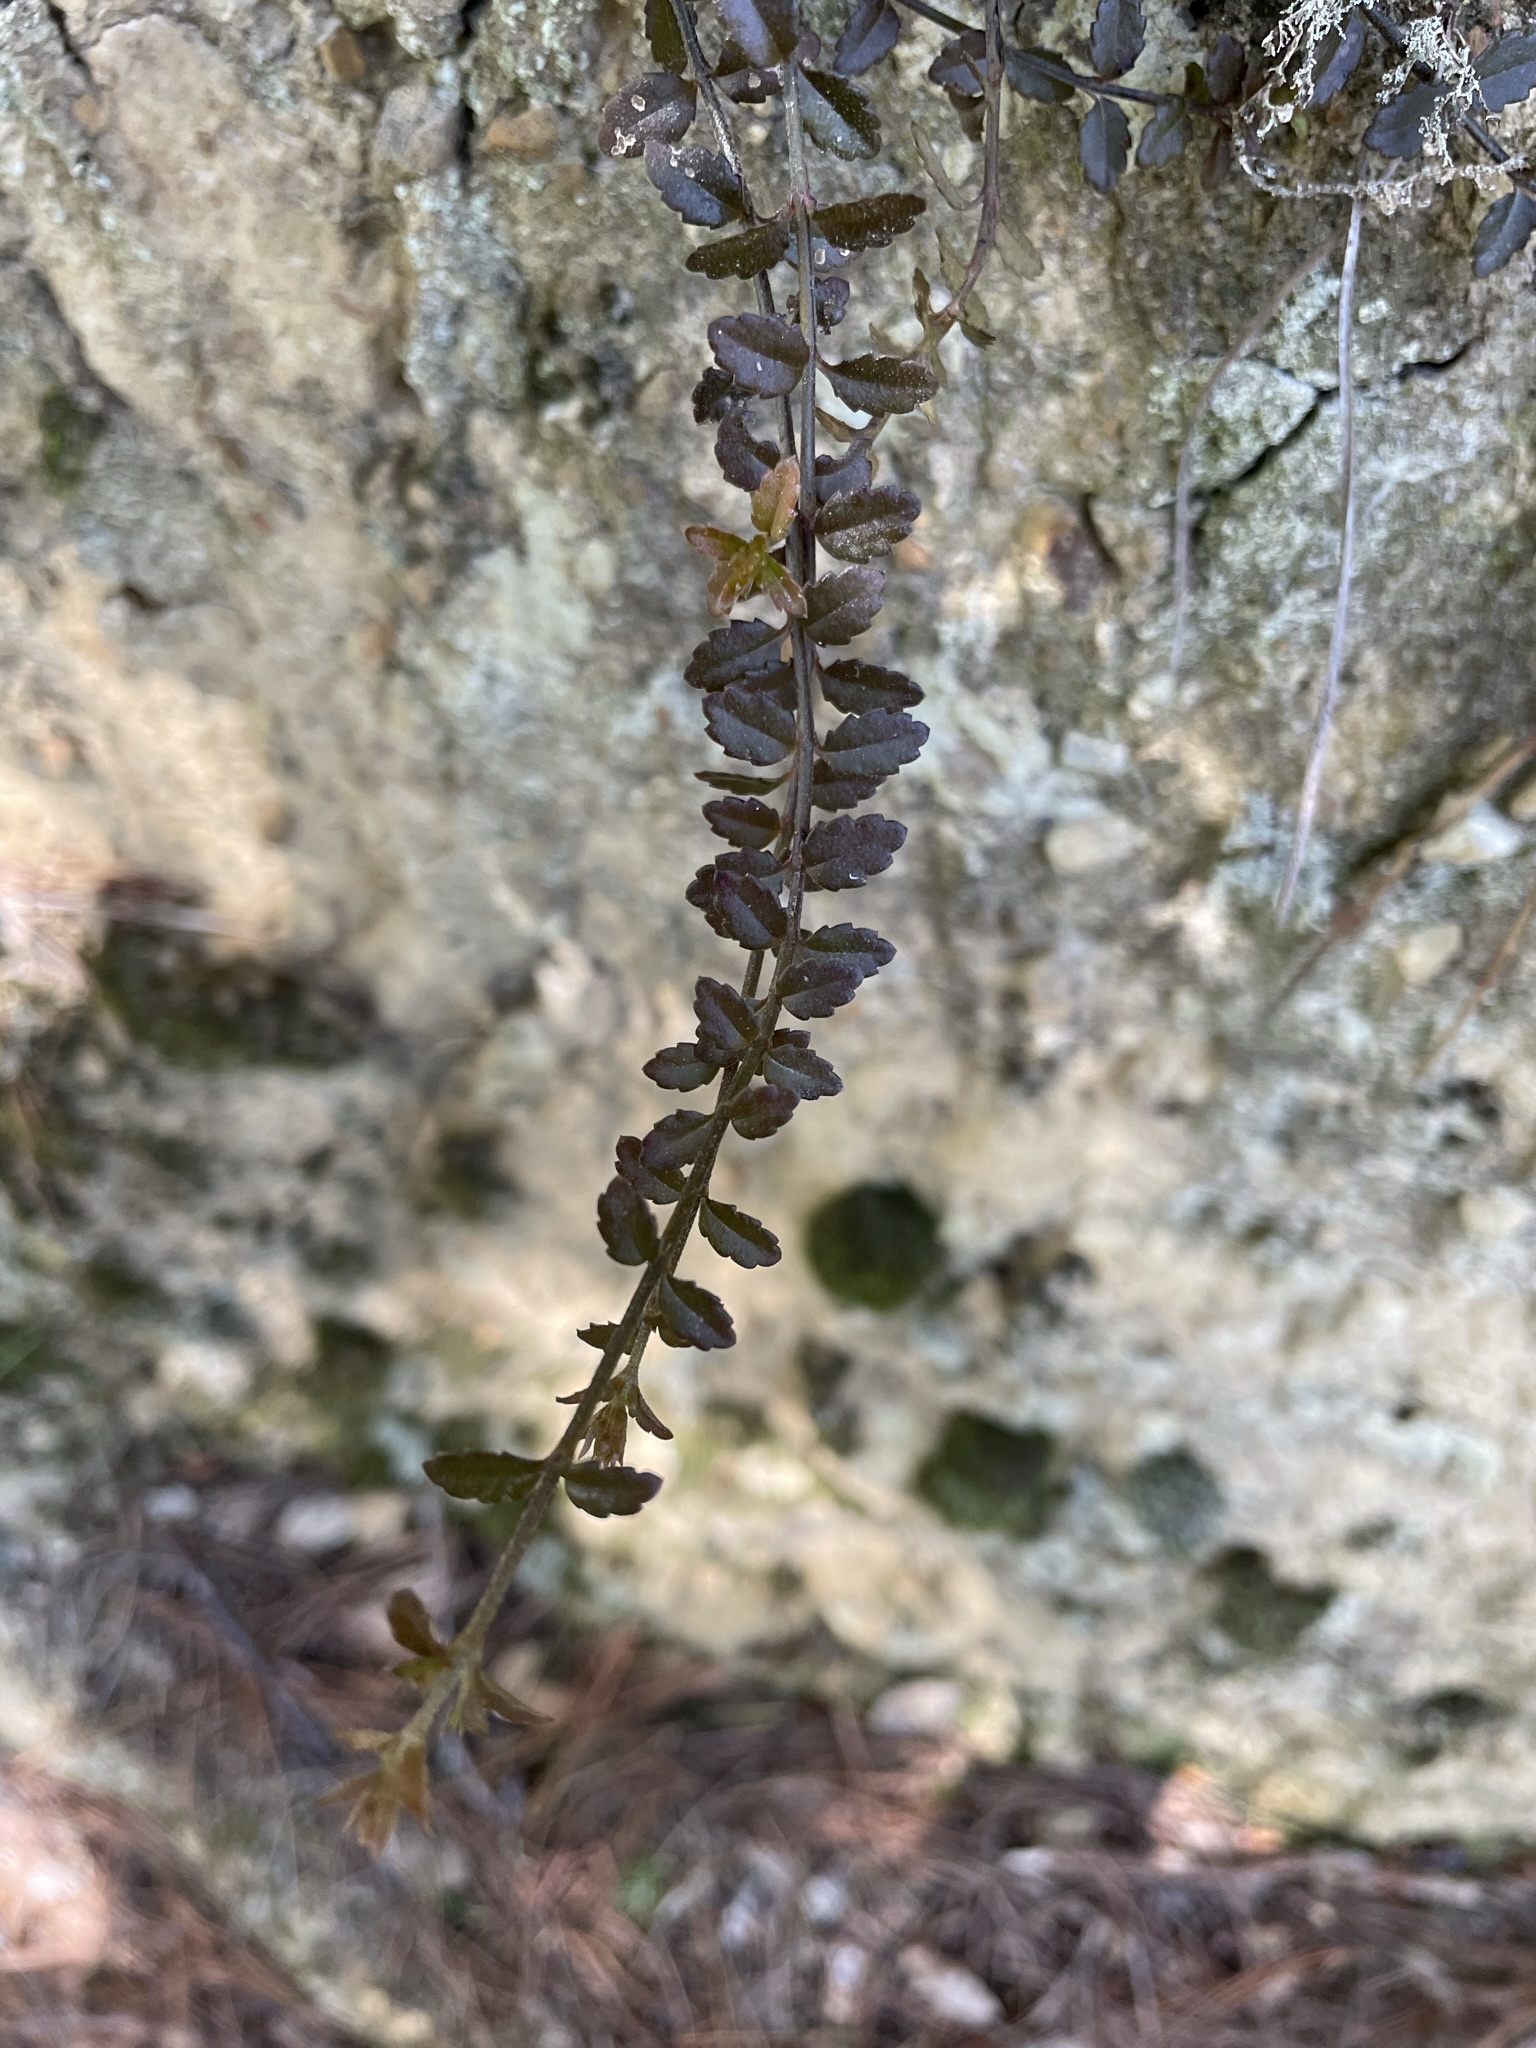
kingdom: Plantae
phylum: Tracheophyta
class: Magnoliopsida
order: Saxifragales
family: Haloragaceae
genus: Gonocarpus
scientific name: Gonocarpus incanus
